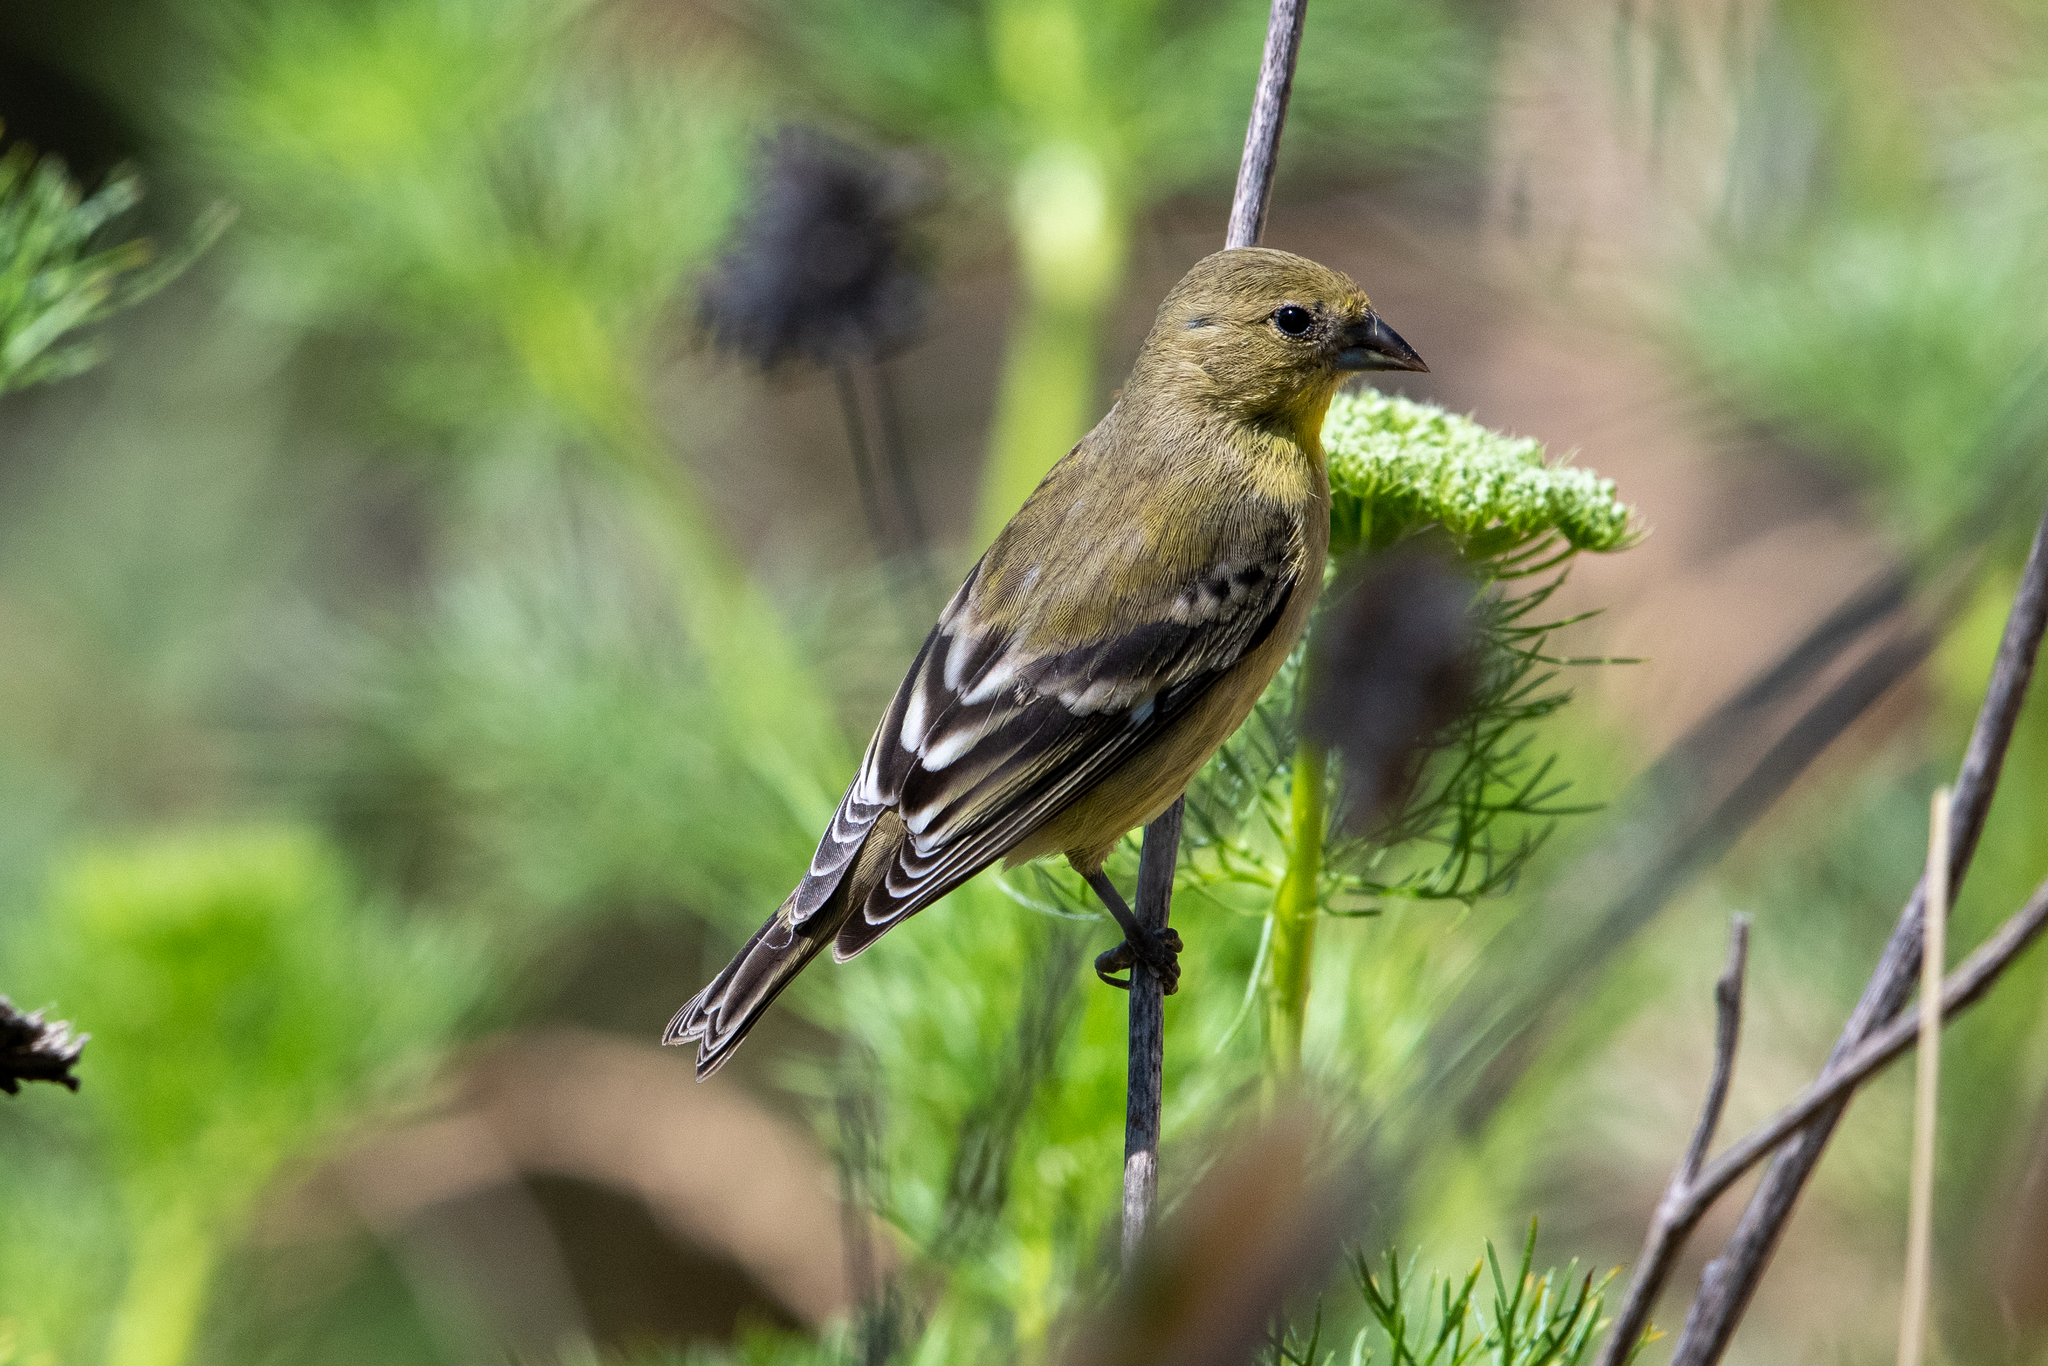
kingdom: Animalia
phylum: Chordata
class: Aves
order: Passeriformes
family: Fringillidae
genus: Spinus
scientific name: Spinus psaltria
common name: Lesser goldfinch
